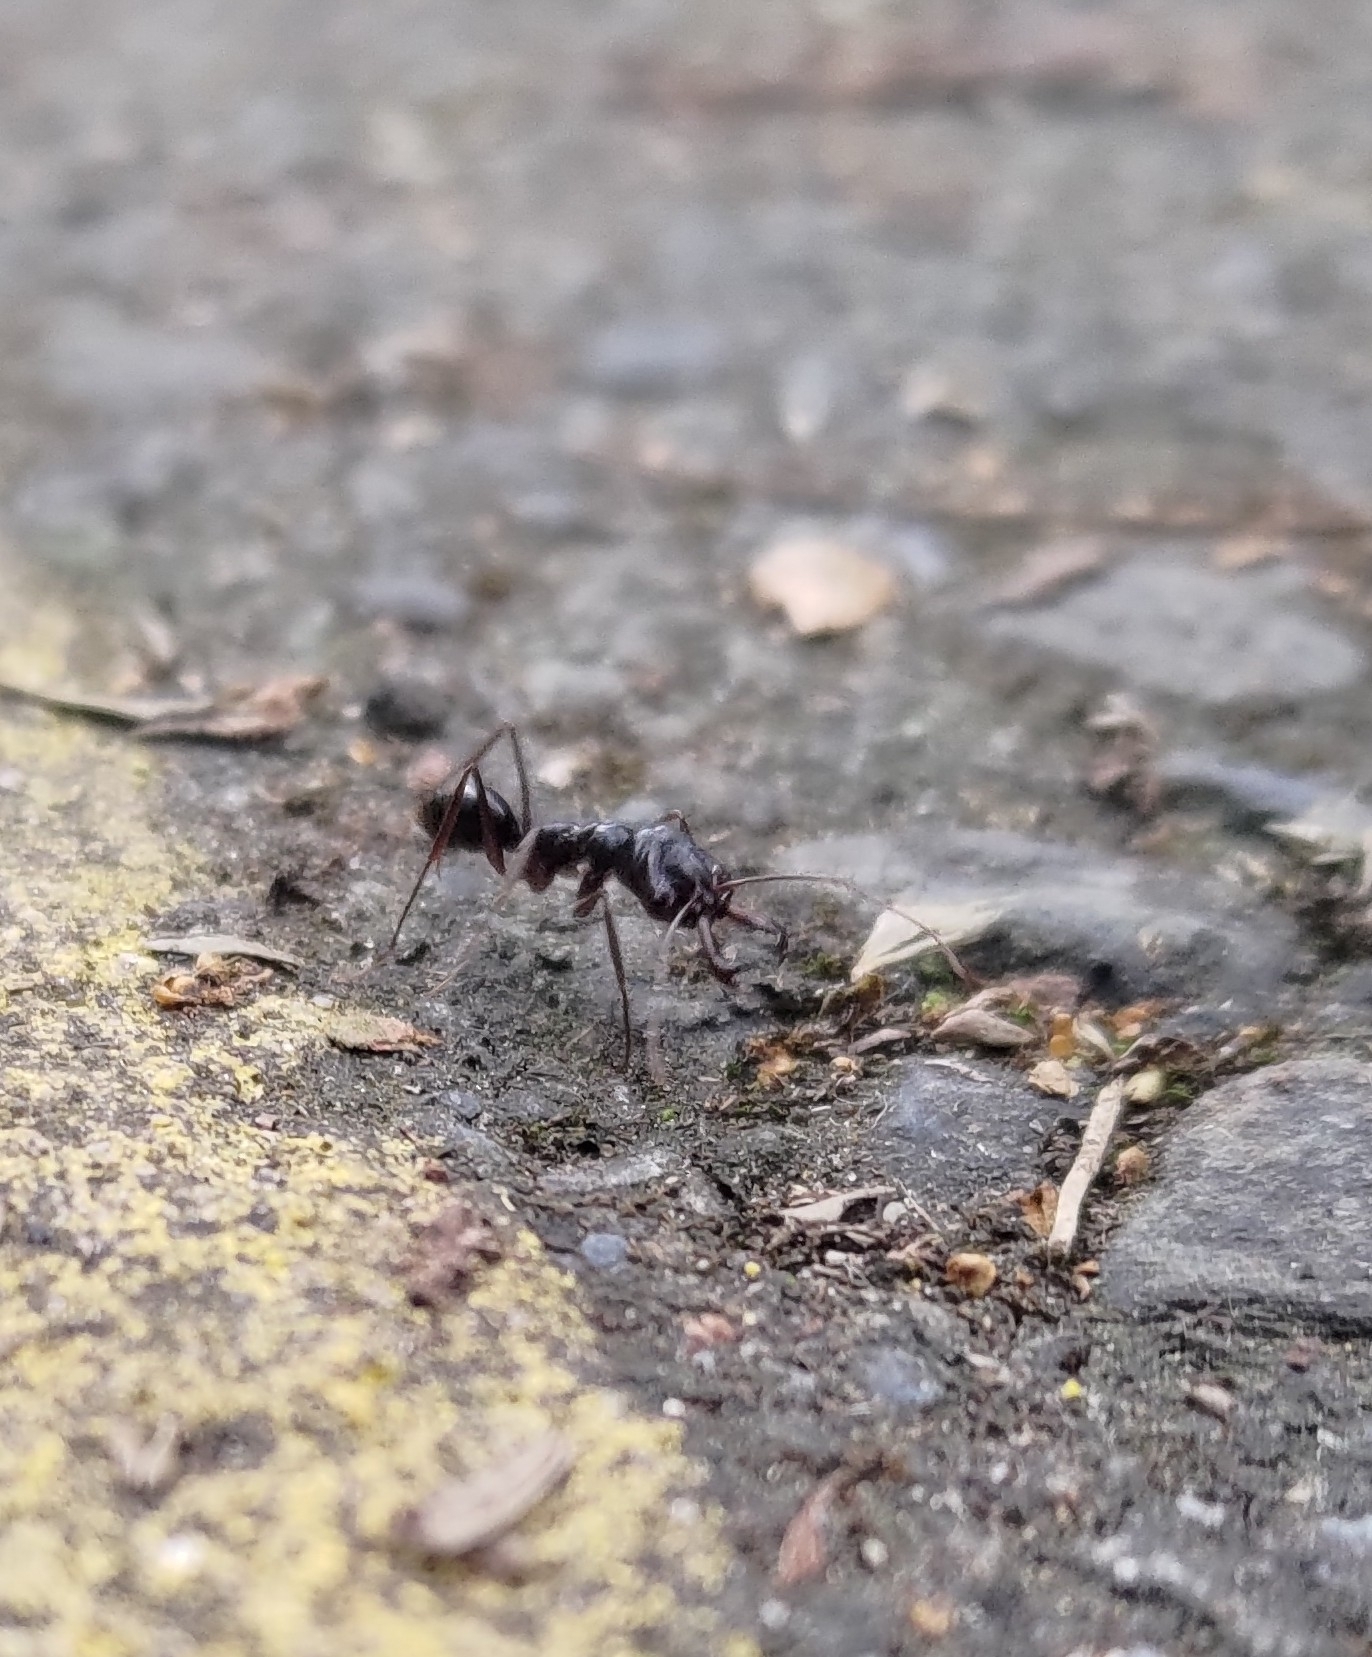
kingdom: Animalia
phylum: Arthropoda
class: Insecta
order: Hymenoptera
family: Formicidae
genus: Odontomachus
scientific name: Odontomachus monticola
